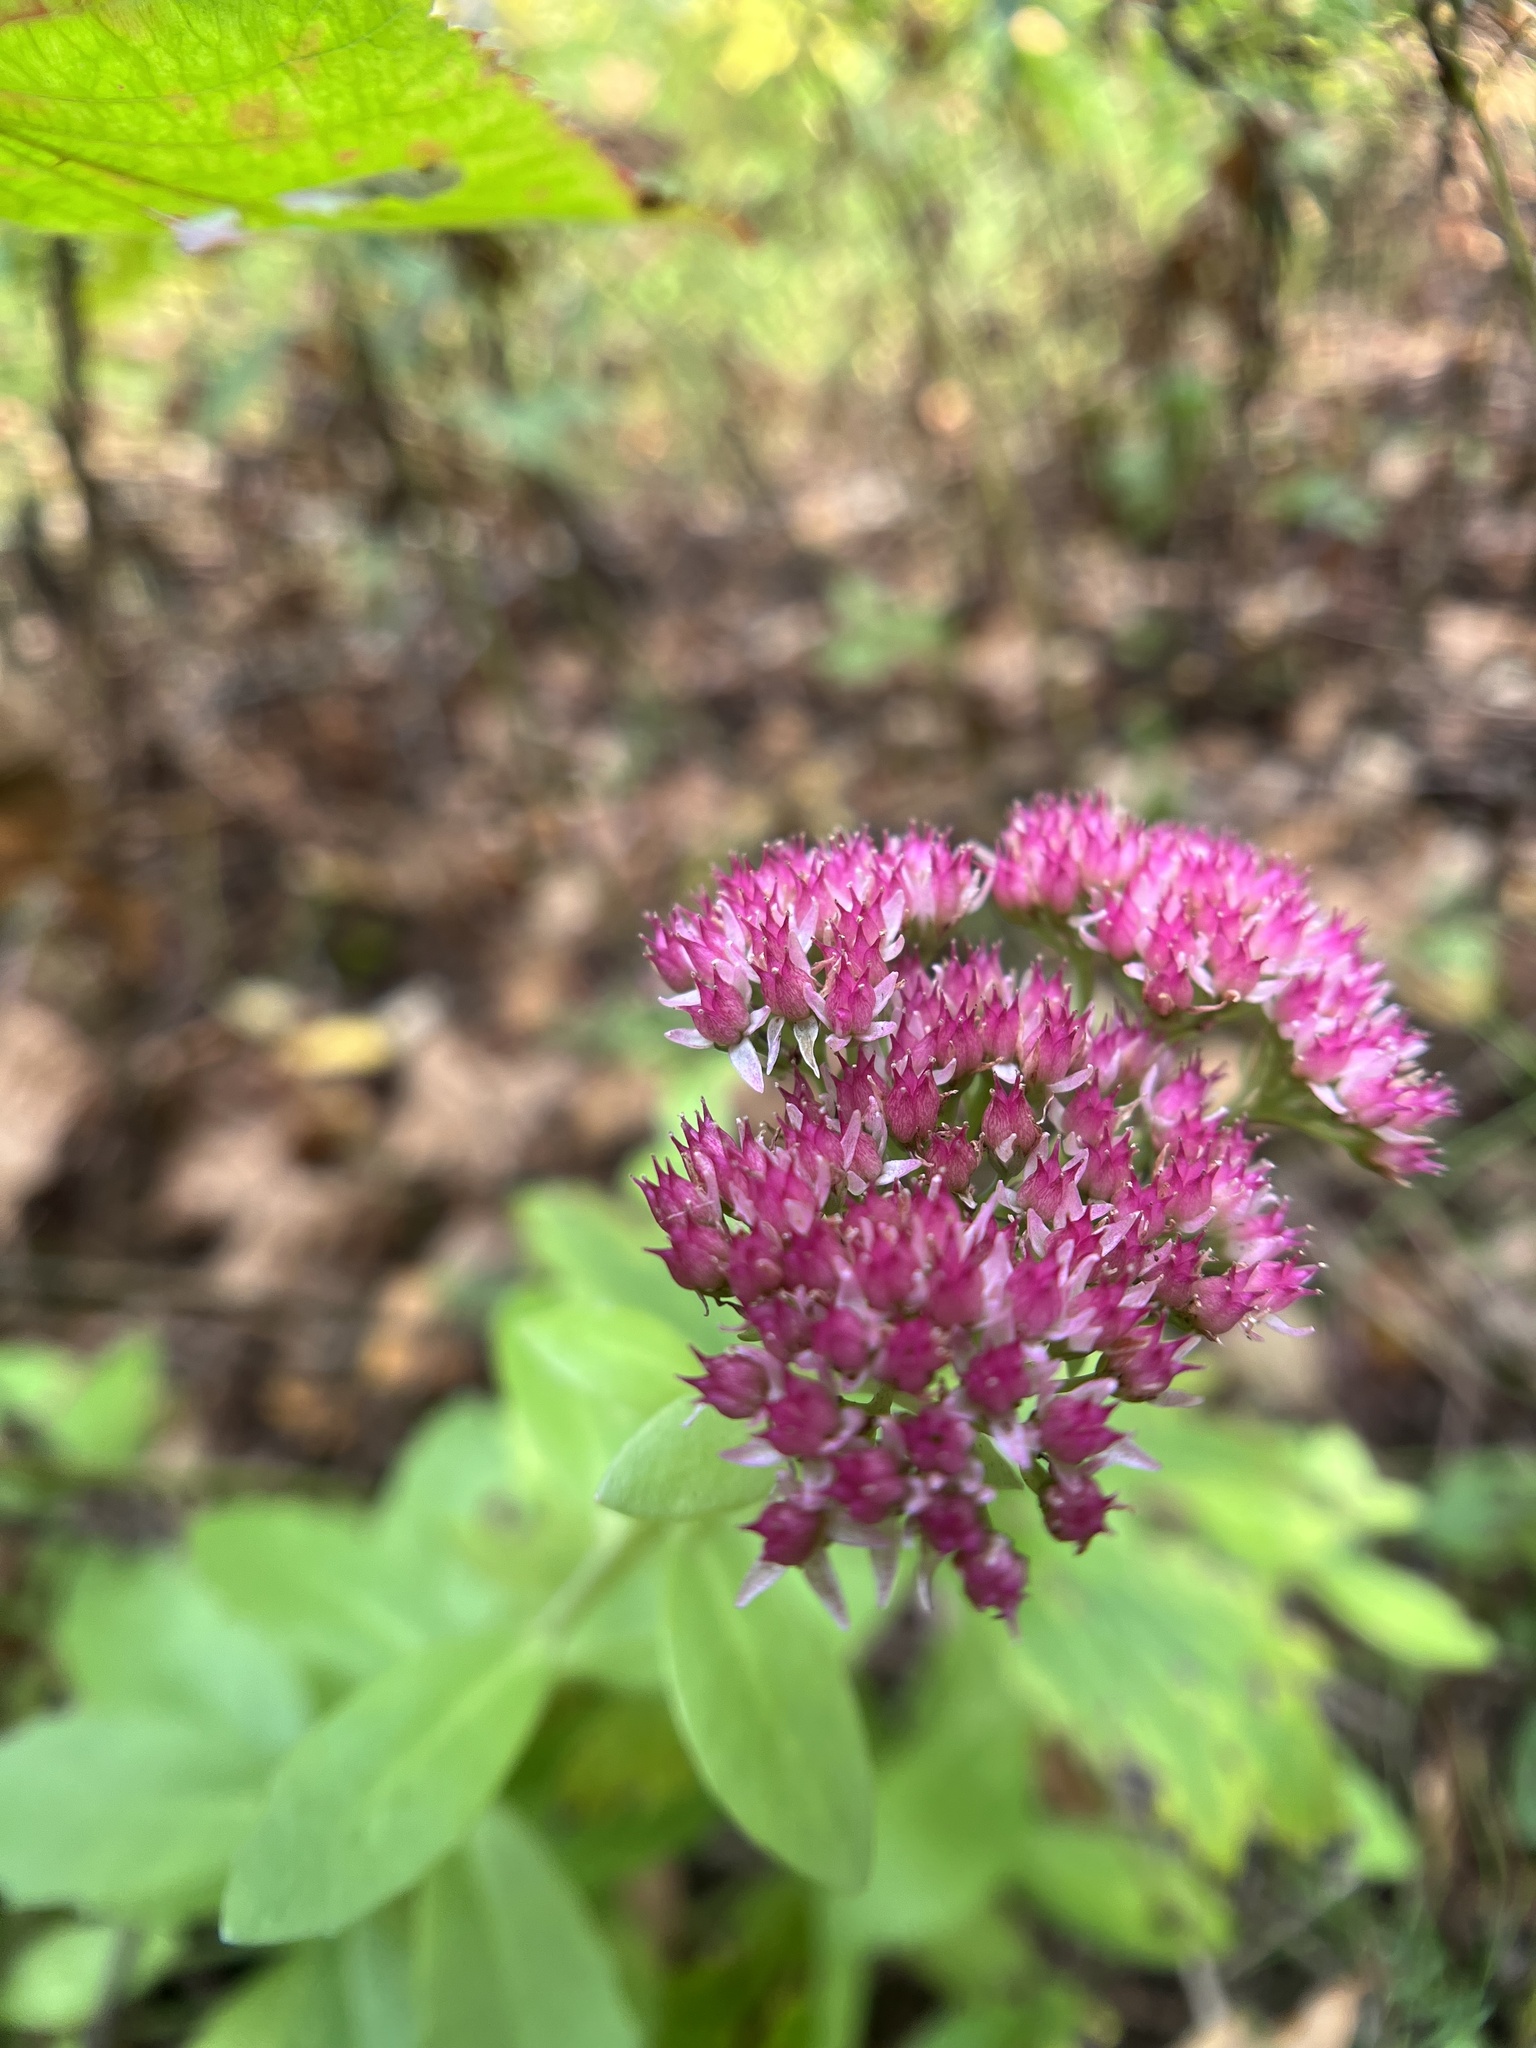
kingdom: Plantae
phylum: Tracheophyta
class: Magnoliopsida
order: Saxifragales
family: Crassulaceae
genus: Hylotelephium
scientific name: Hylotelephium
